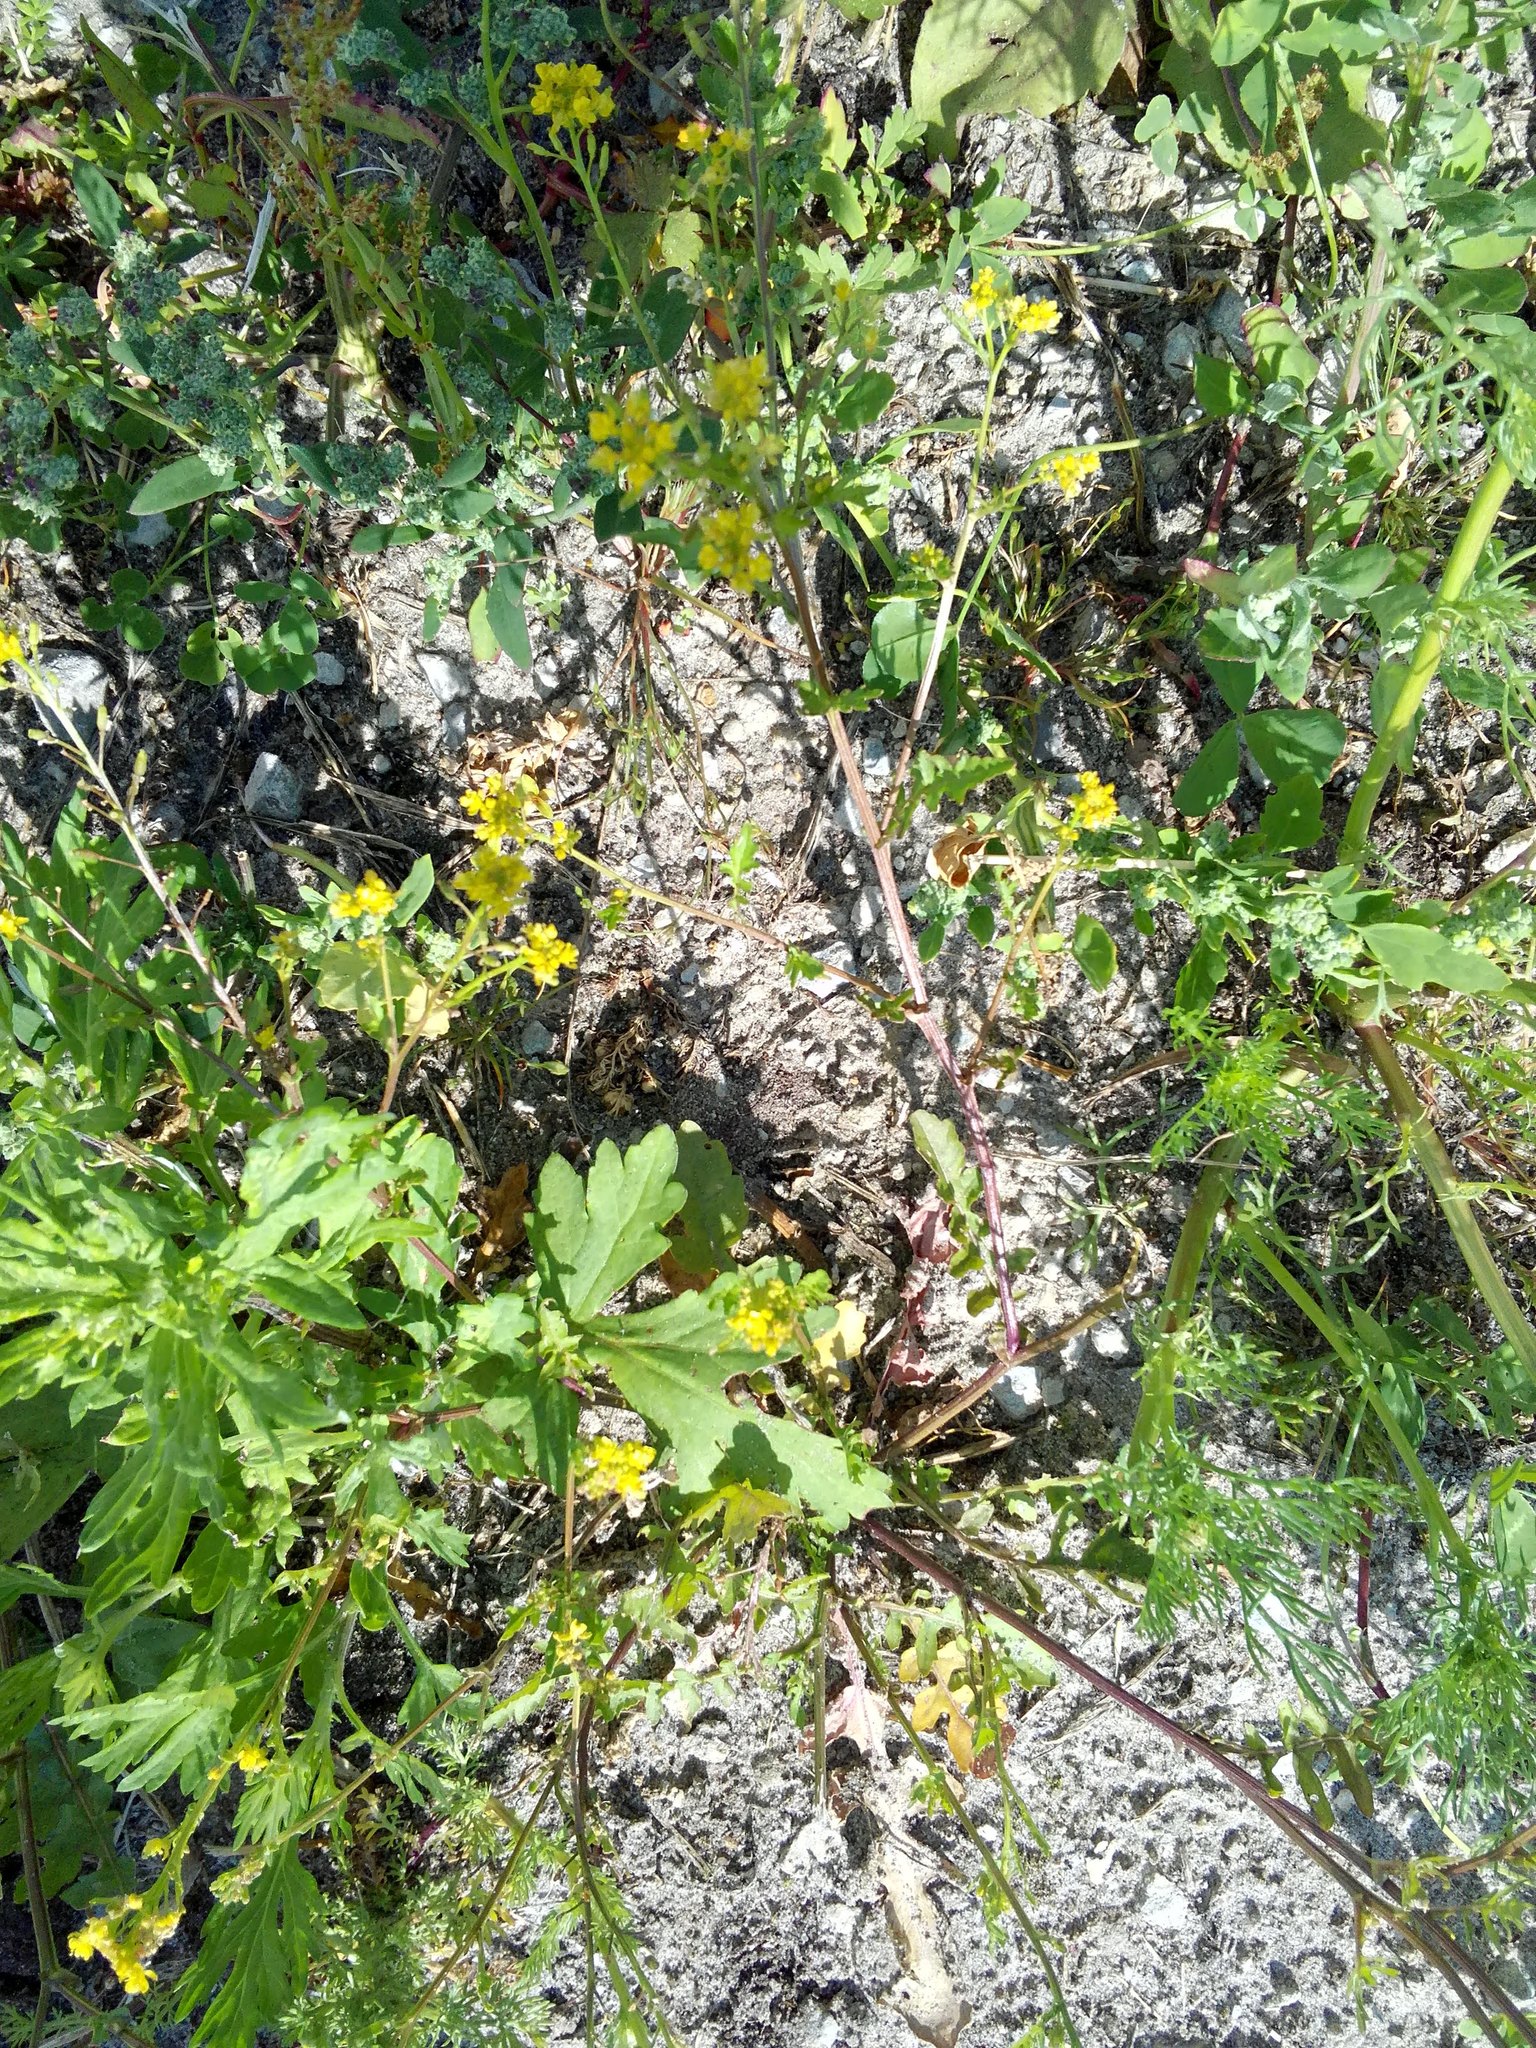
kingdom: Plantae
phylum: Tracheophyta
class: Magnoliopsida
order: Brassicales
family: Brassicaceae
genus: Rorippa
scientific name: Rorippa palustris
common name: Marsh yellow-cress
